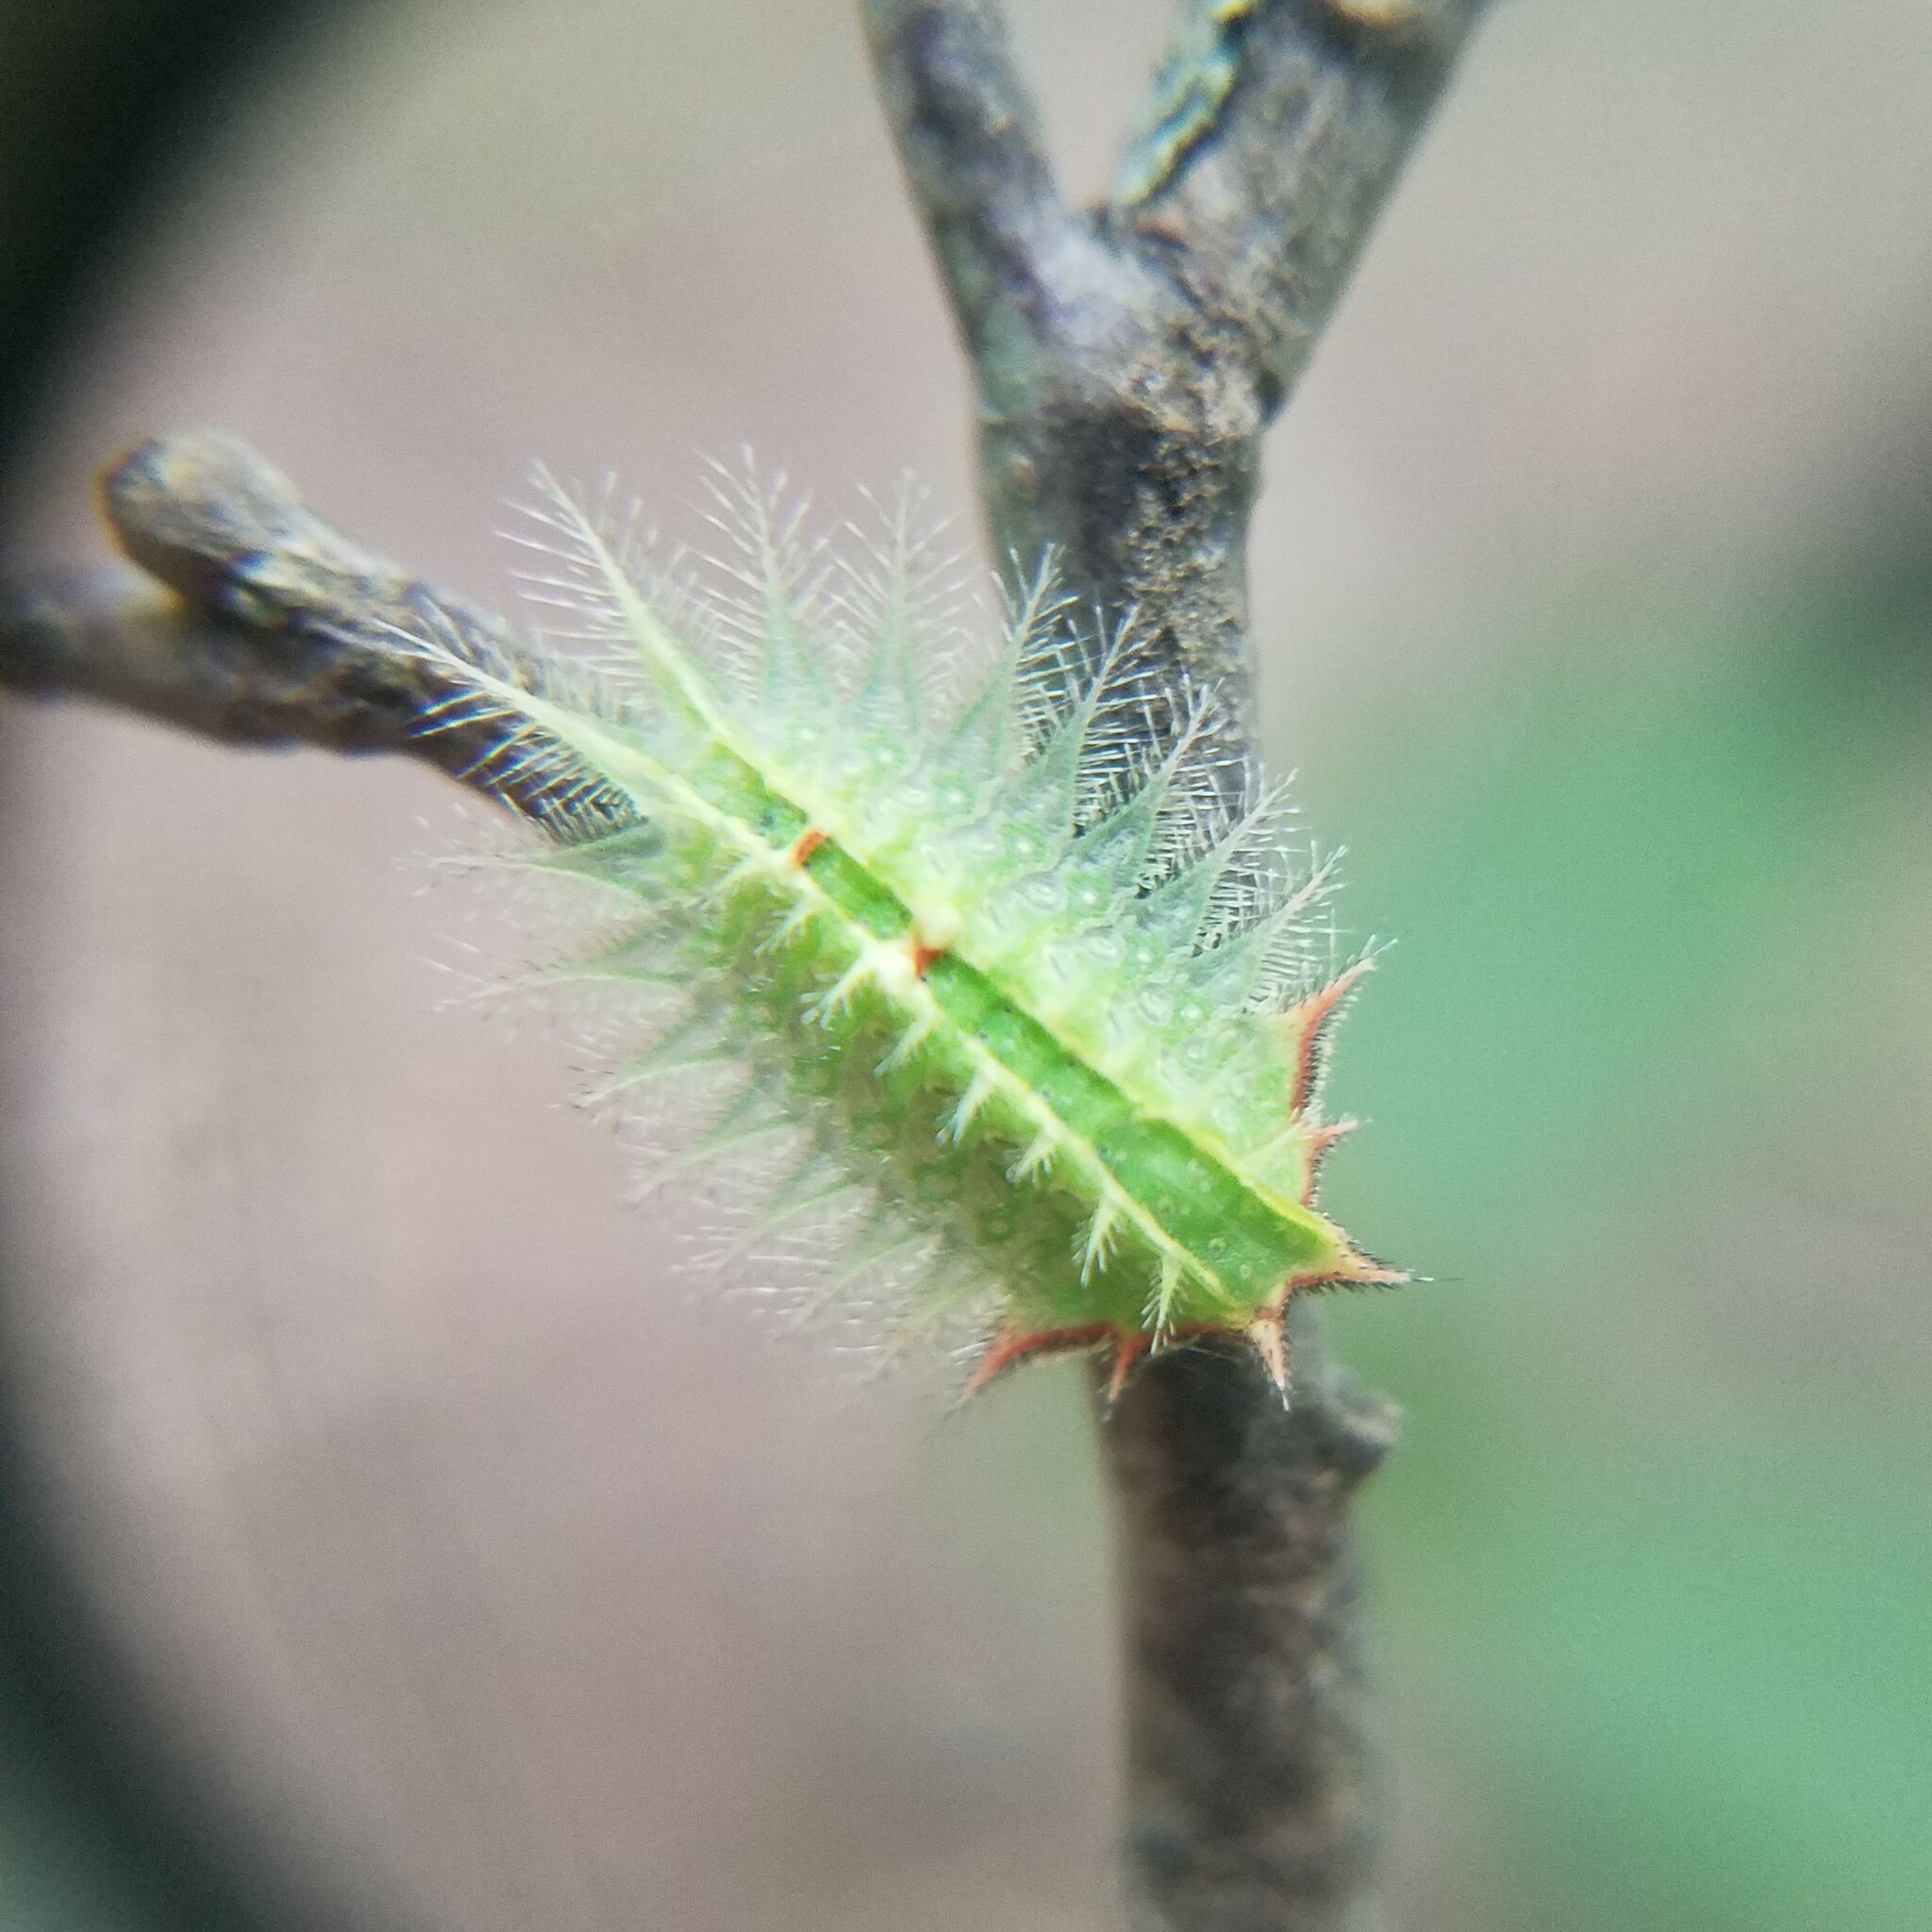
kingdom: Animalia
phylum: Arthropoda
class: Insecta
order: Lepidoptera
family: Limacodidae
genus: Isa
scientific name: Isa textula
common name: Crowned slug moth
